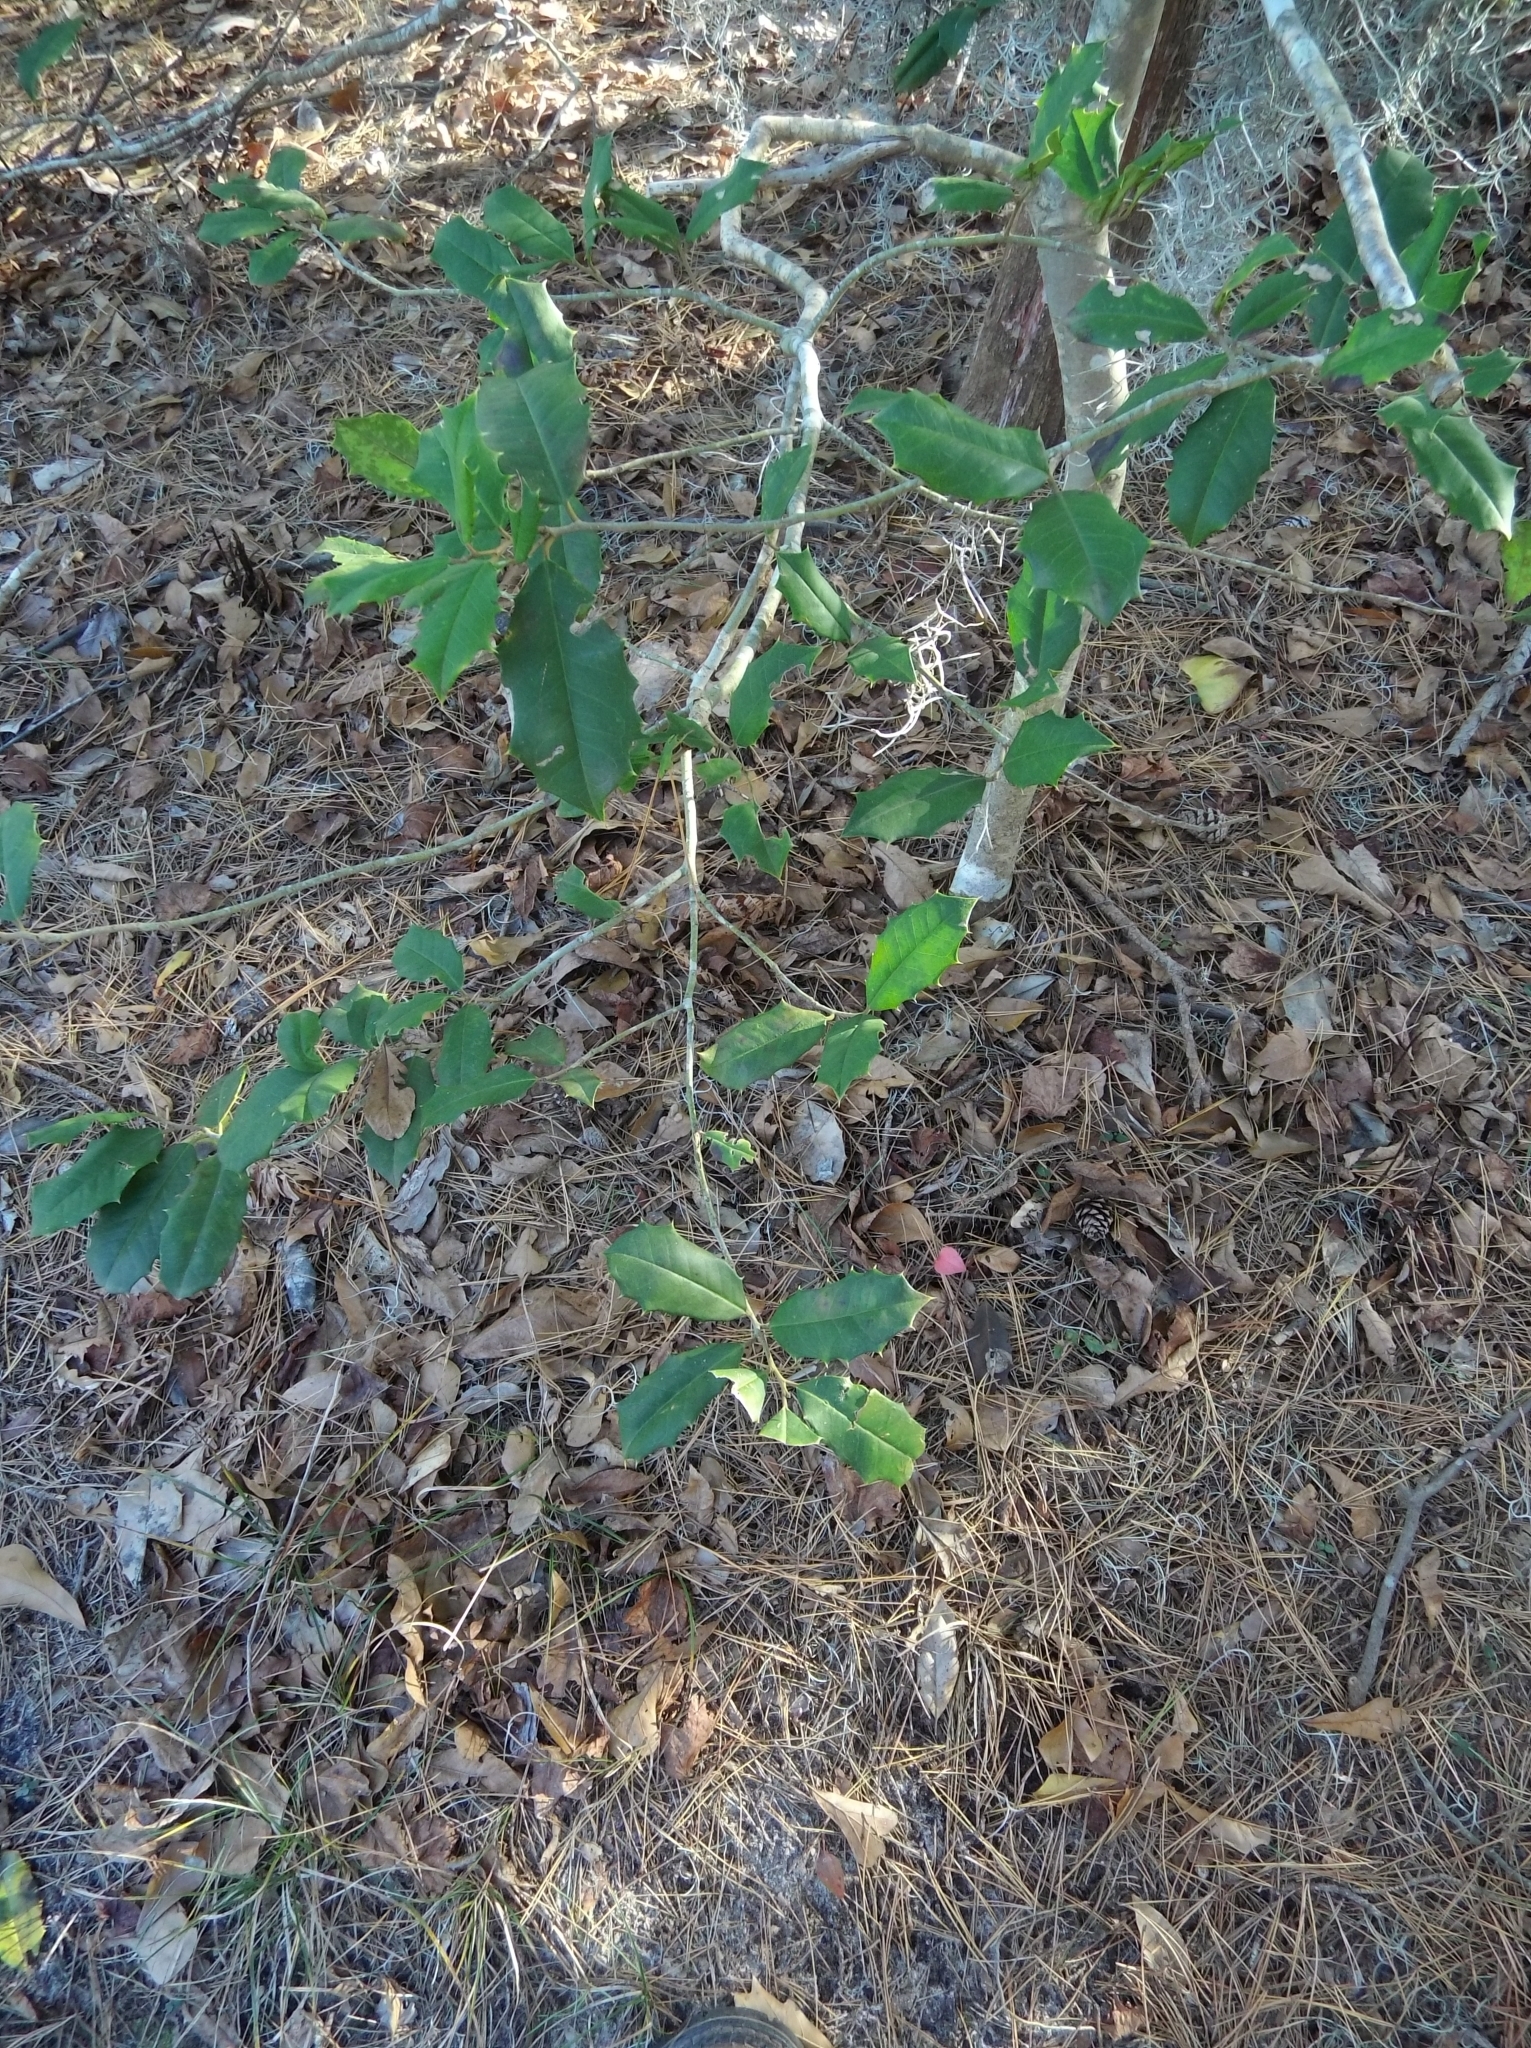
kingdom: Plantae
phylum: Tracheophyta
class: Magnoliopsida
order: Aquifoliales
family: Aquifoliaceae
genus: Ilex
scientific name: Ilex opaca
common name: American holly
